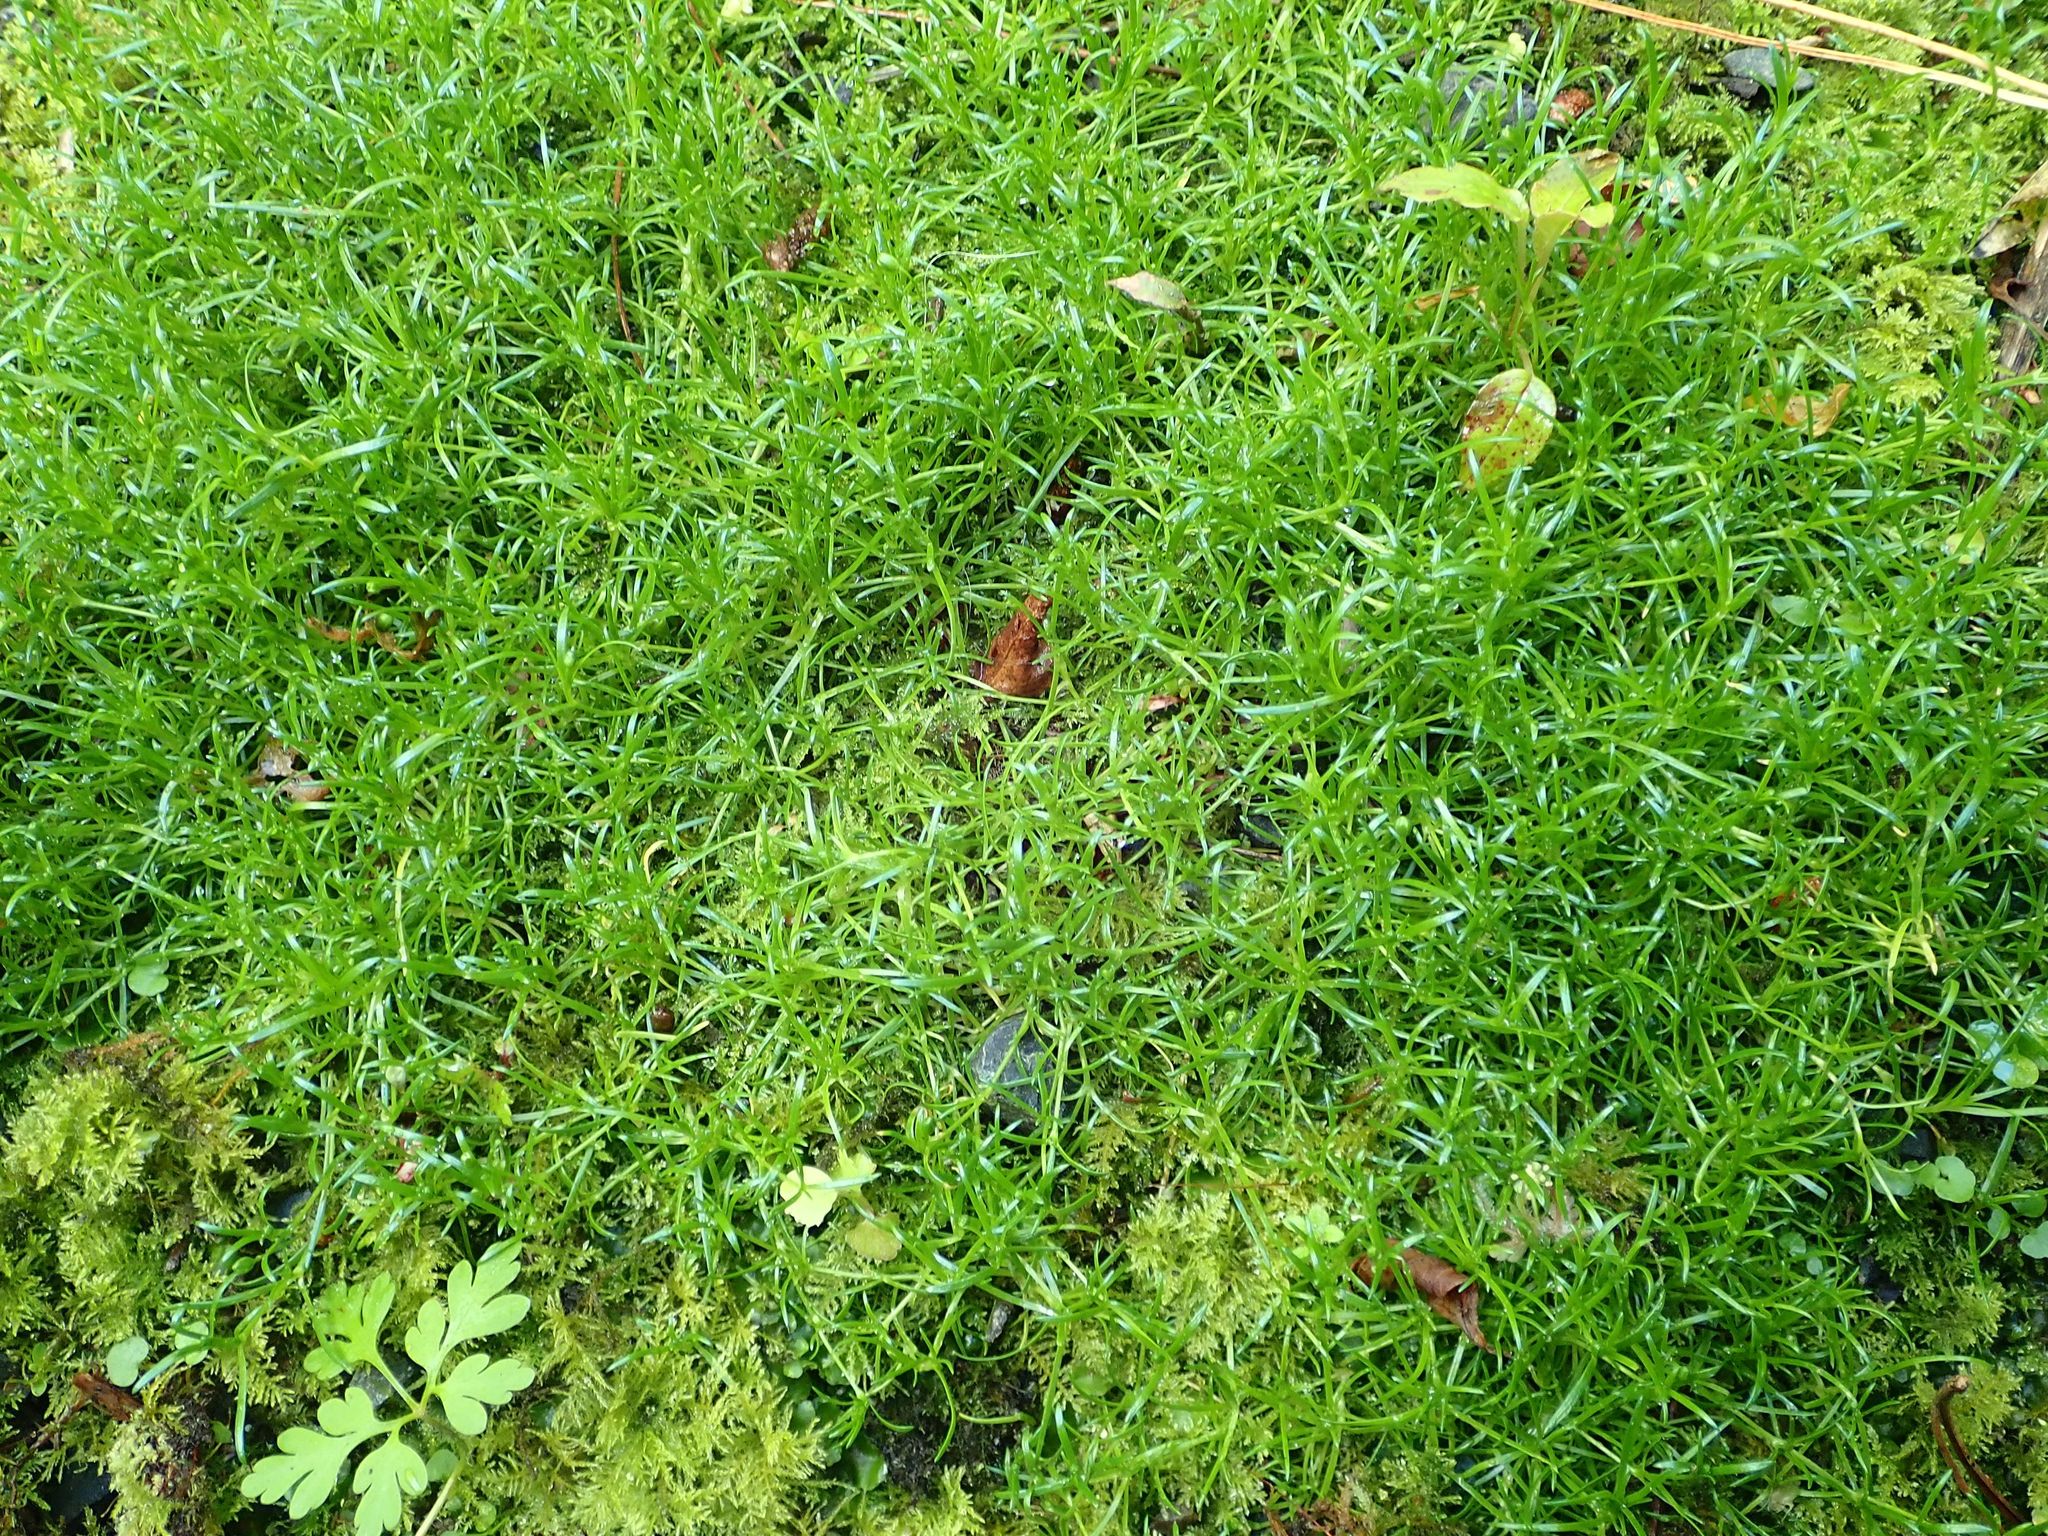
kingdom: Plantae
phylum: Tracheophyta
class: Magnoliopsida
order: Caryophyllales
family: Caryophyllaceae
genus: Sagina
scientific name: Sagina procumbens
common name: Procumbent pearlwort
